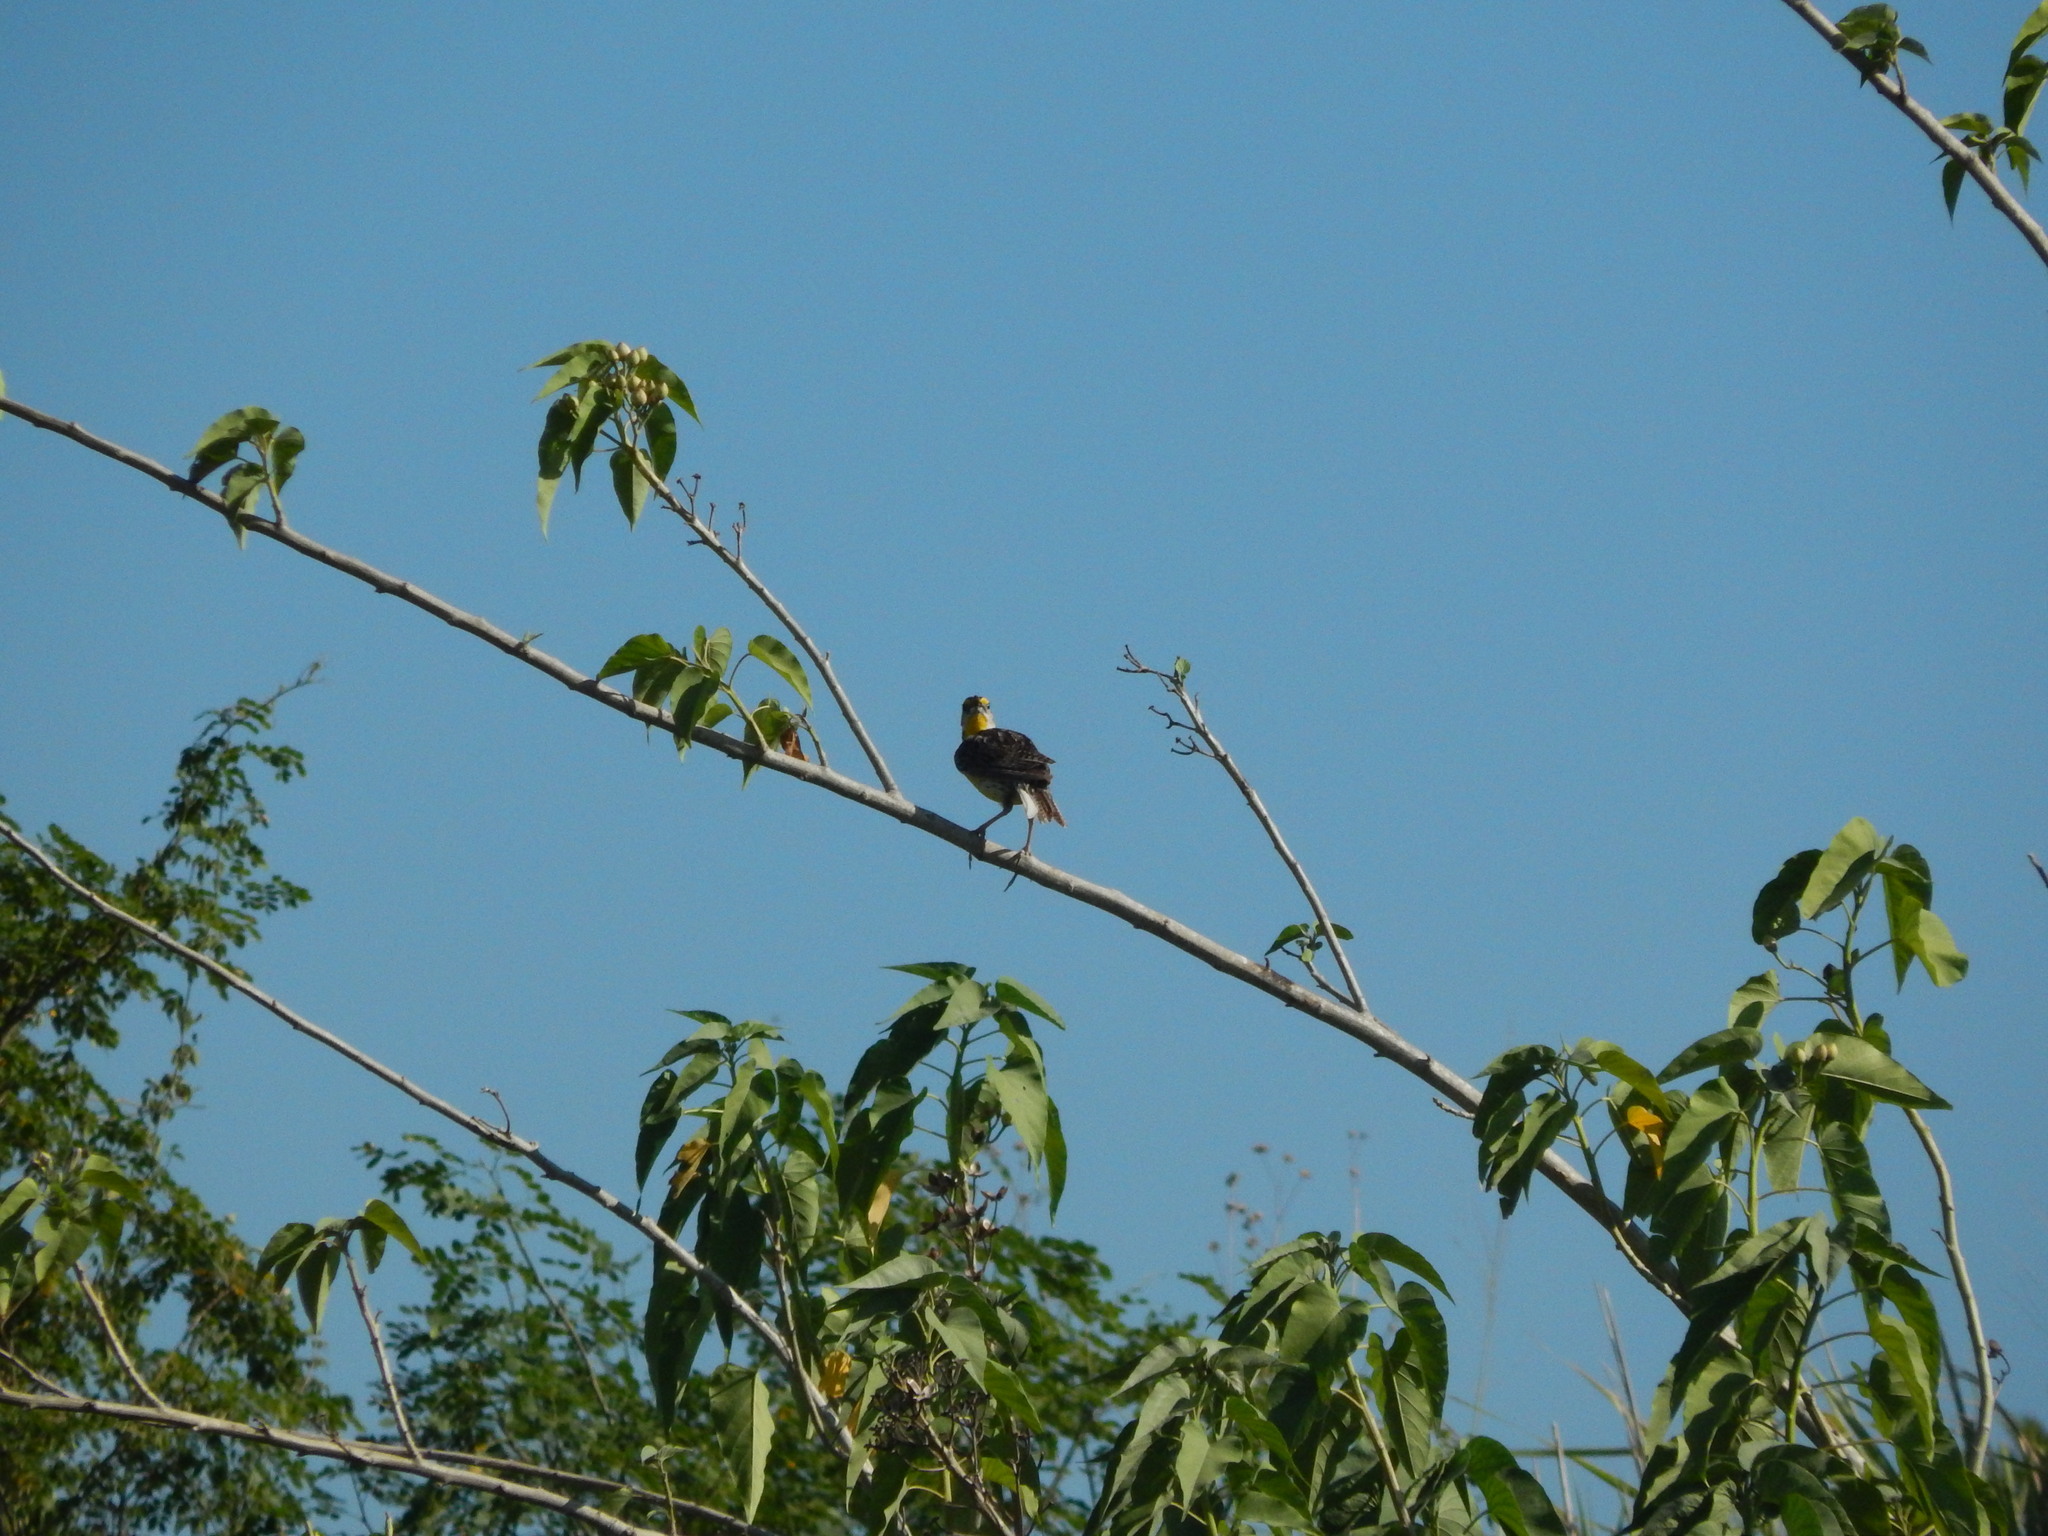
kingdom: Animalia
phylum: Chordata
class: Aves
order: Passeriformes
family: Icteridae
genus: Sturnella
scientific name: Sturnella magna
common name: Eastern meadowlark
